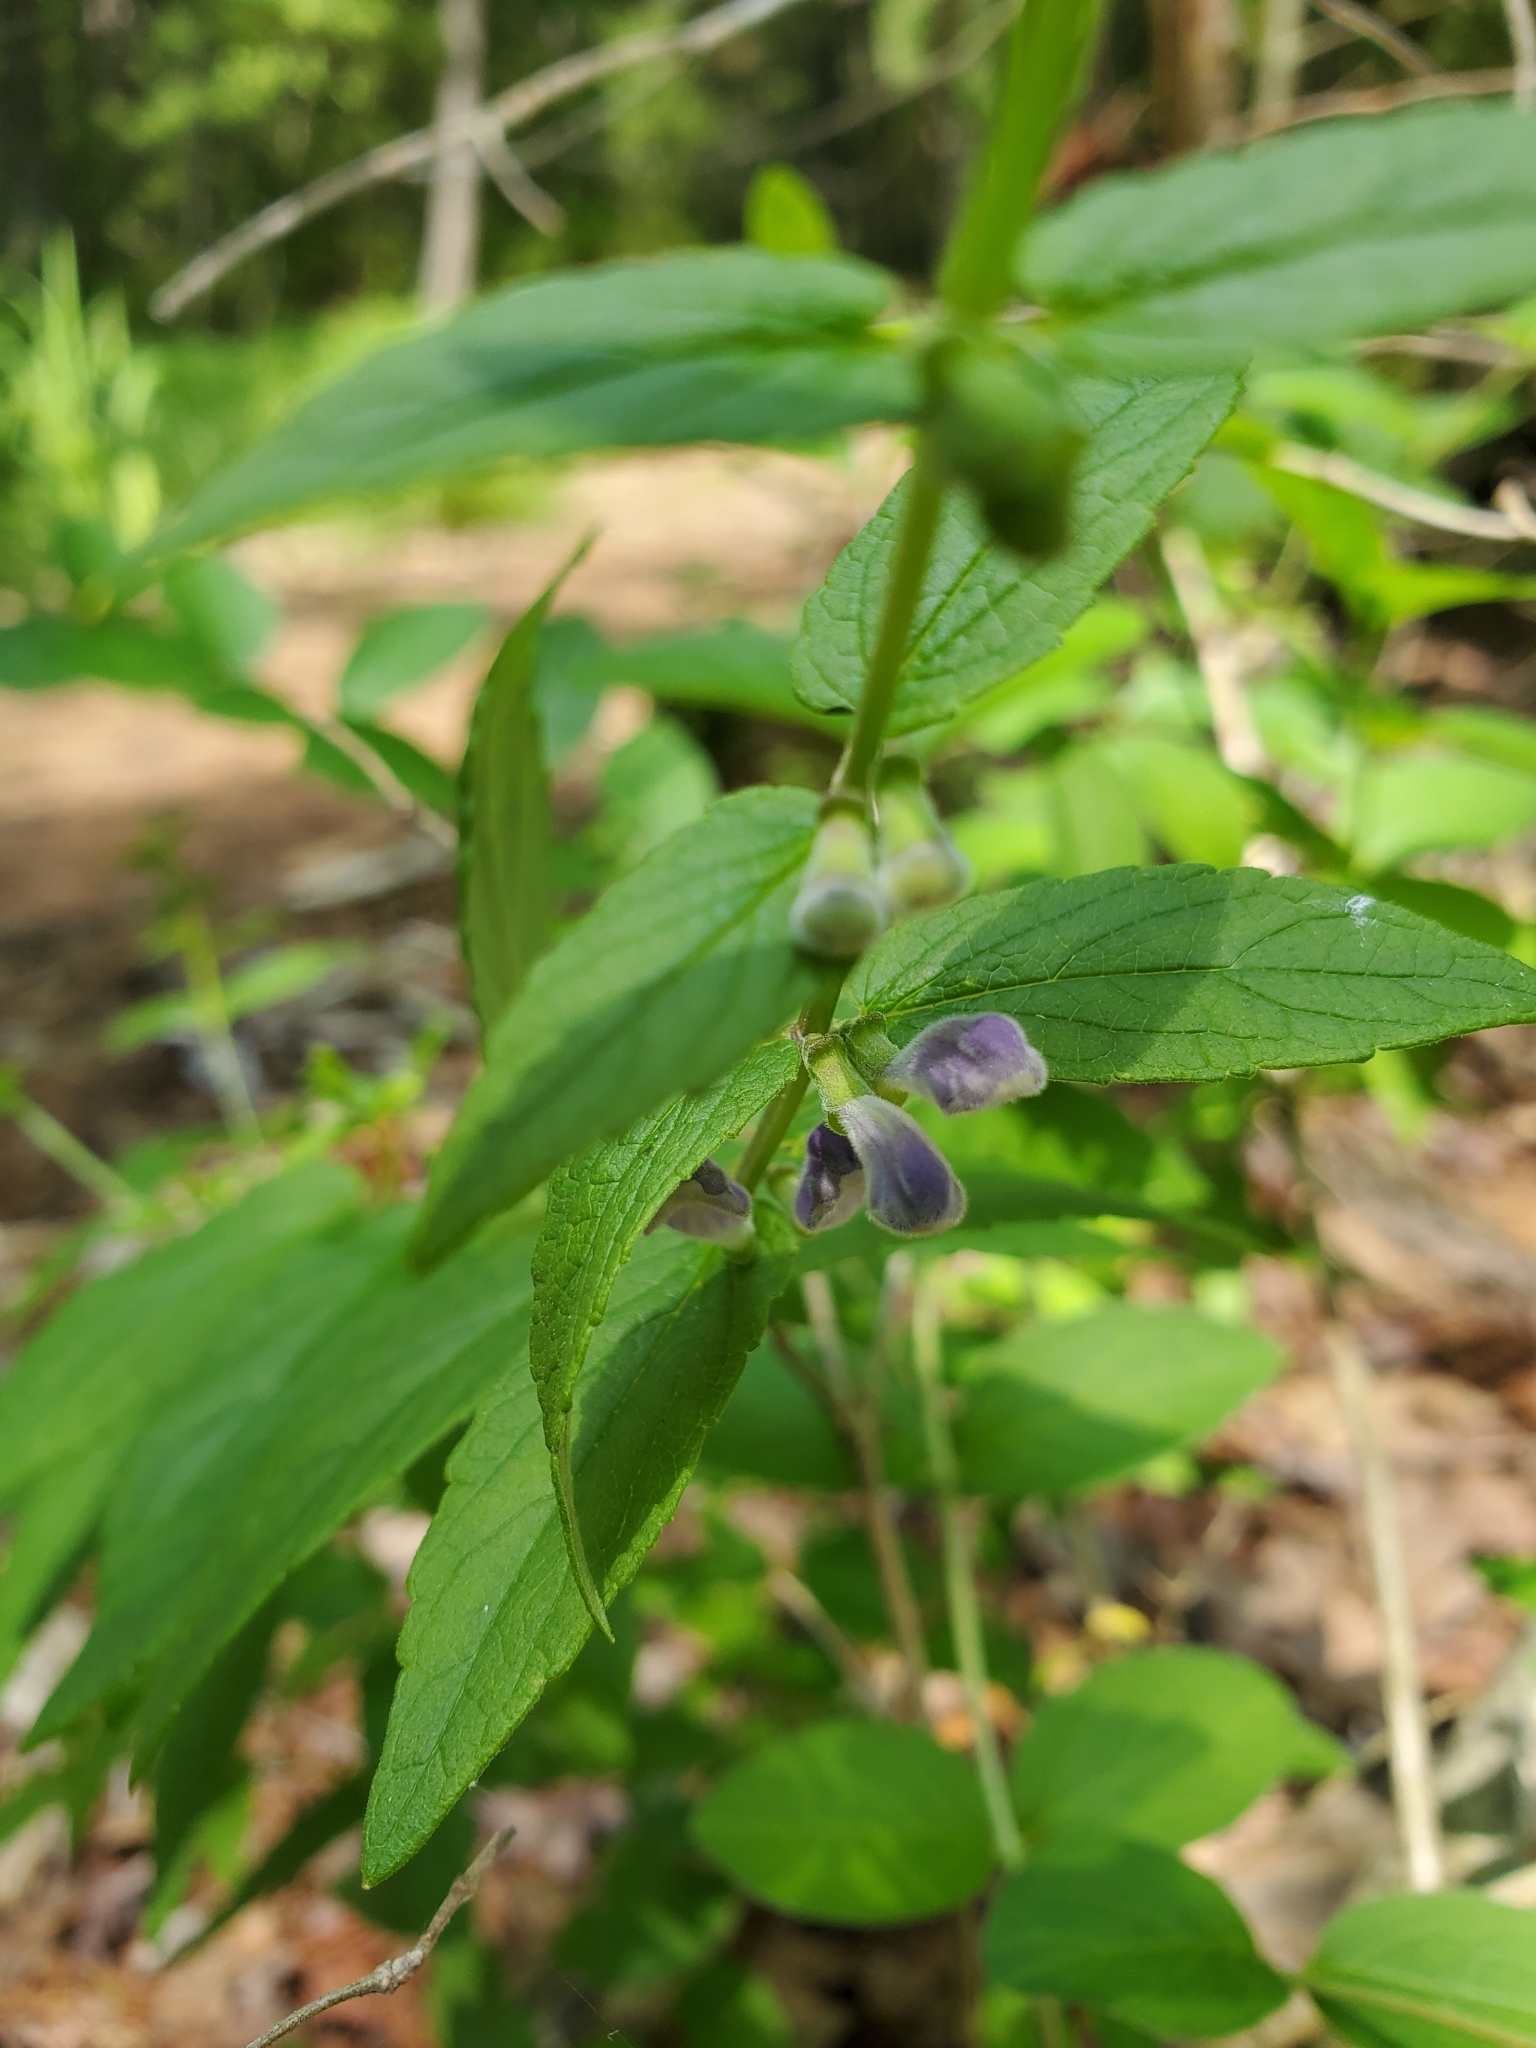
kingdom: Plantae
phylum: Tracheophyta
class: Magnoliopsida
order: Lamiales
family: Lamiaceae
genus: Scutellaria
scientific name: Scutellaria galericulata
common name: Skullcap
